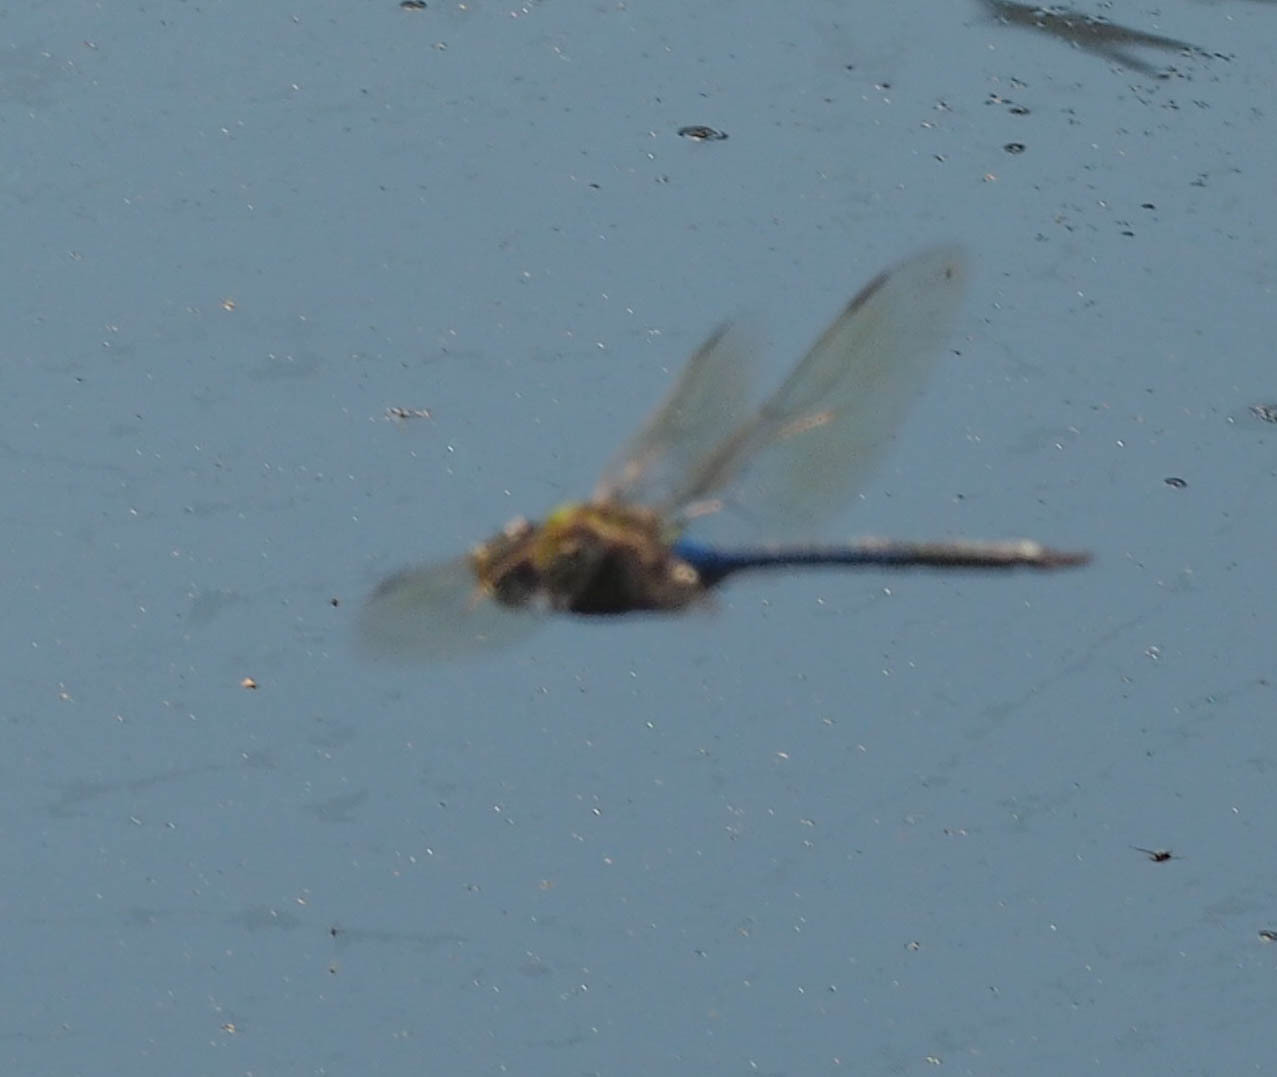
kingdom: Animalia
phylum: Arthropoda
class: Insecta
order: Odonata
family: Aeshnidae
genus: Anax
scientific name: Anax junius
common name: Common green darner
